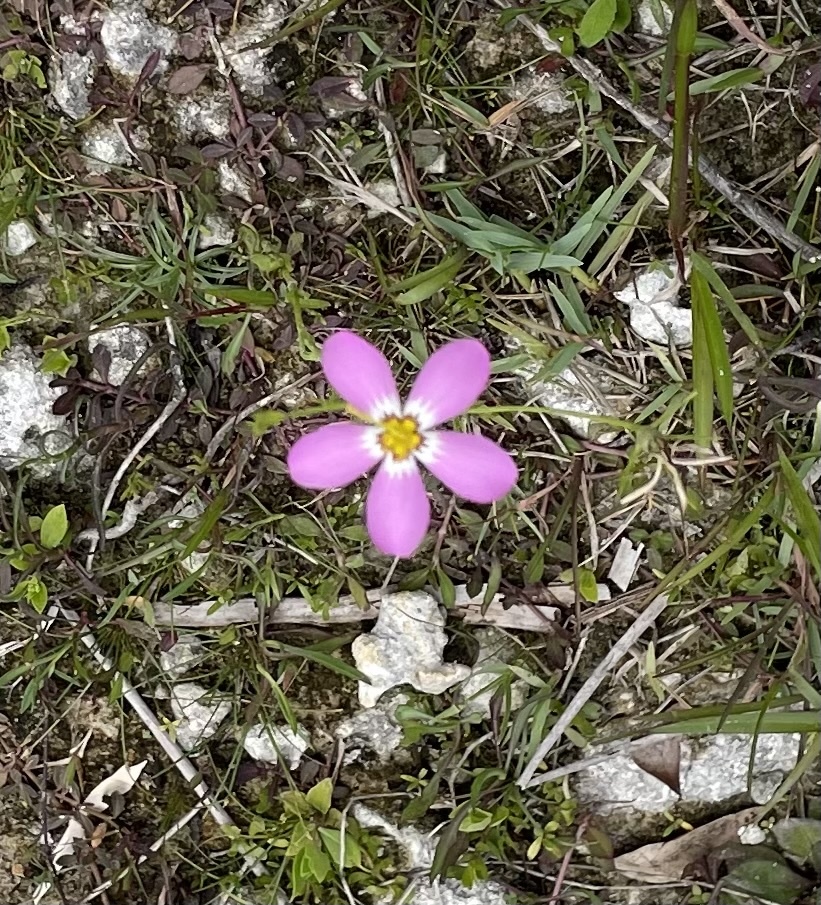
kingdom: Plantae
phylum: Tracheophyta
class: Magnoliopsida
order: Gentianales
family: Gentianaceae
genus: Sabatia
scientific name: Sabatia stellaris
